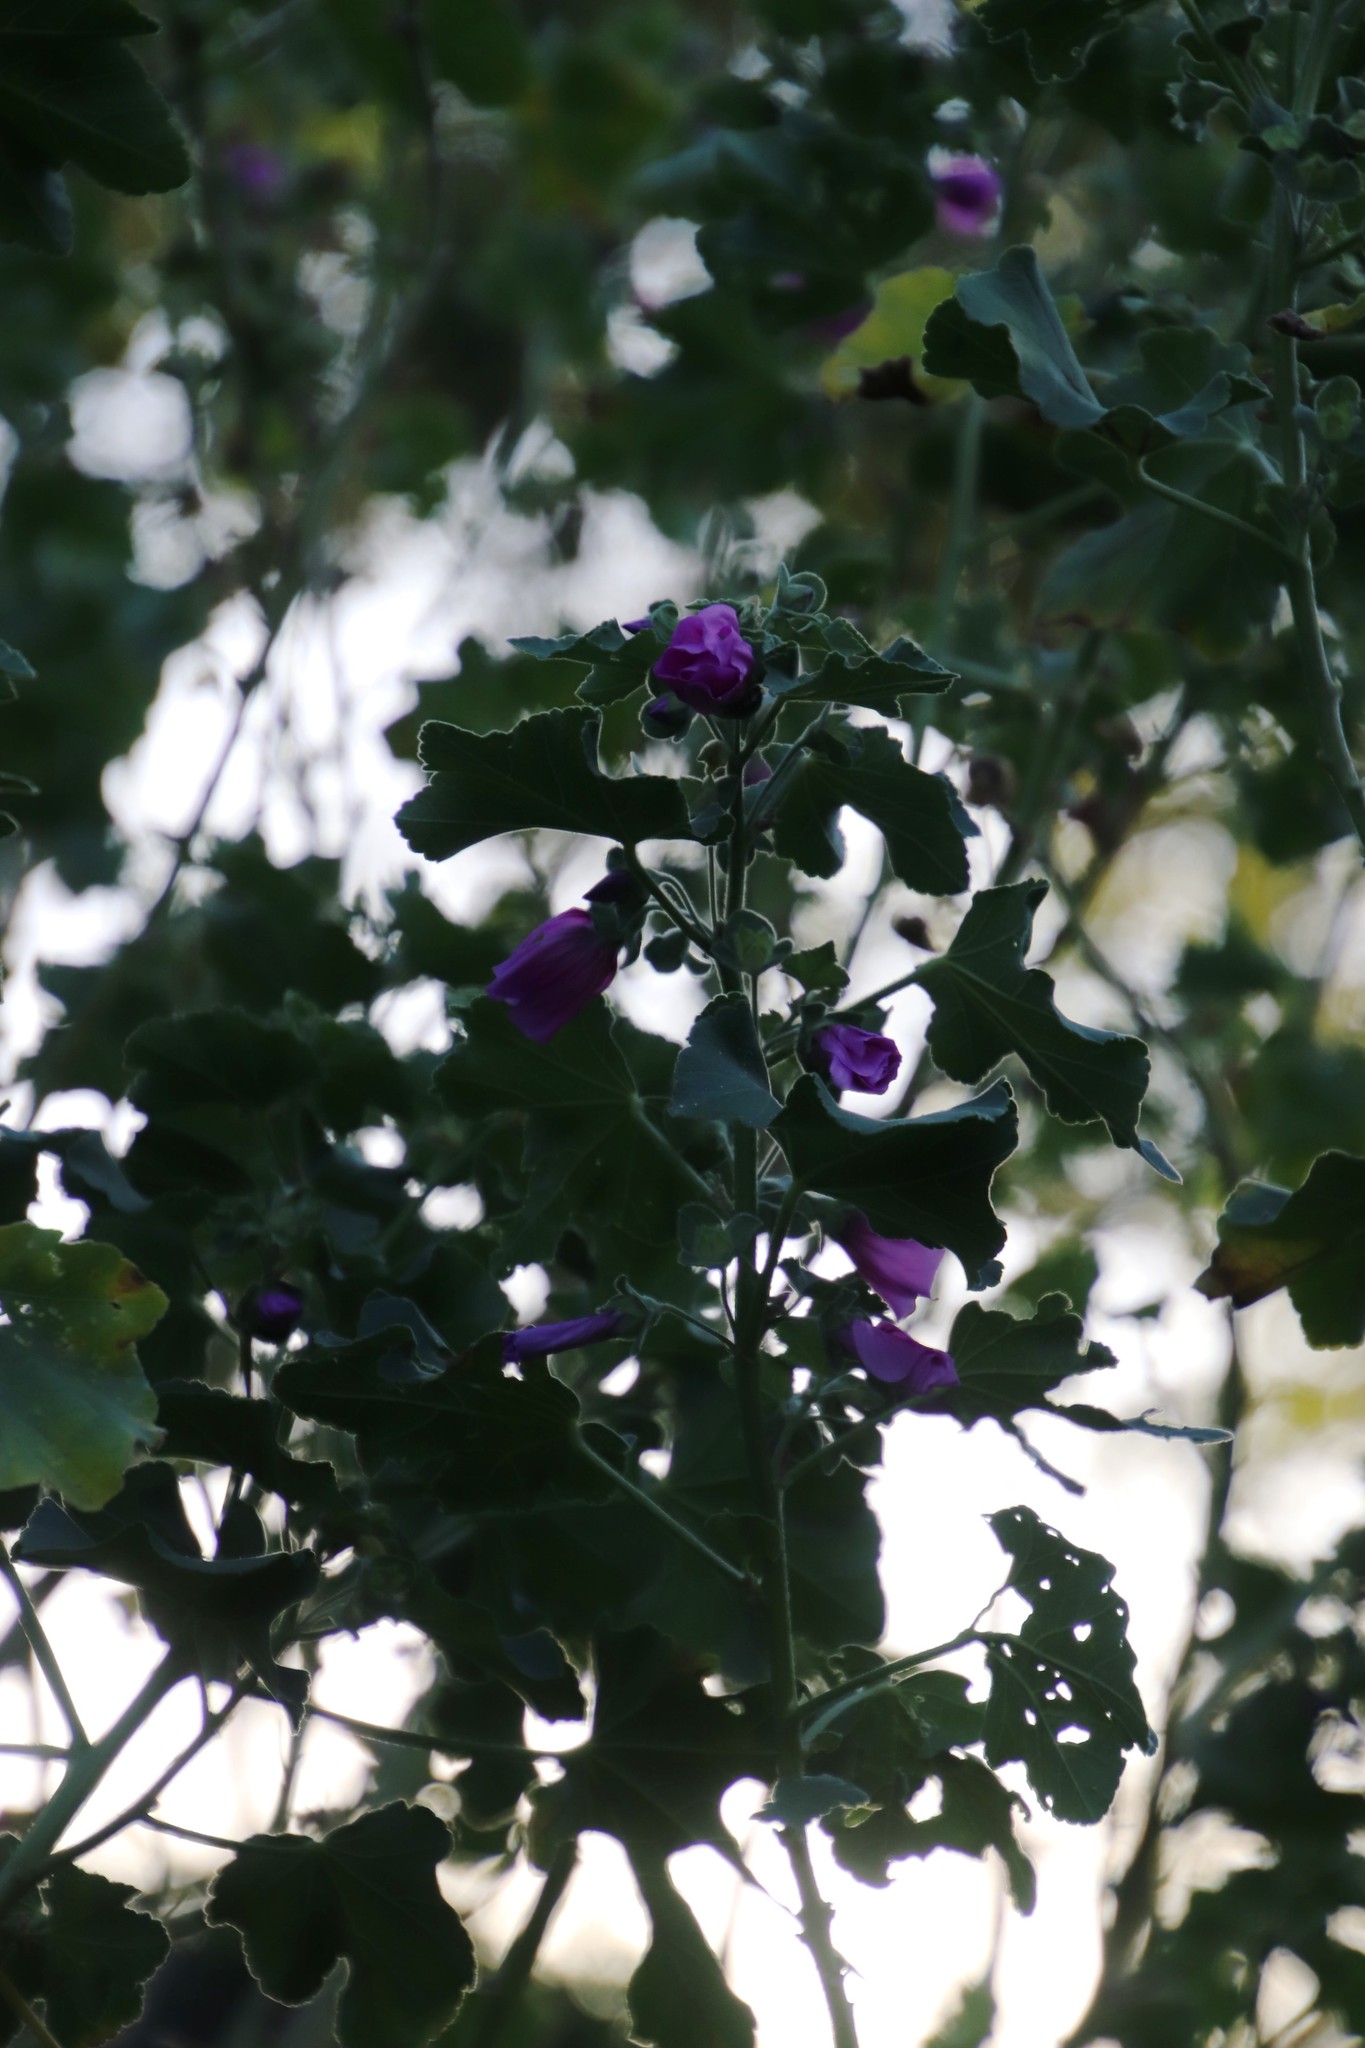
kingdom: Plantae
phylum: Tracheophyta
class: Magnoliopsida
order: Malvales
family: Malvaceae
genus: Malva
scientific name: Malva arborea
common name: Tree mallow
